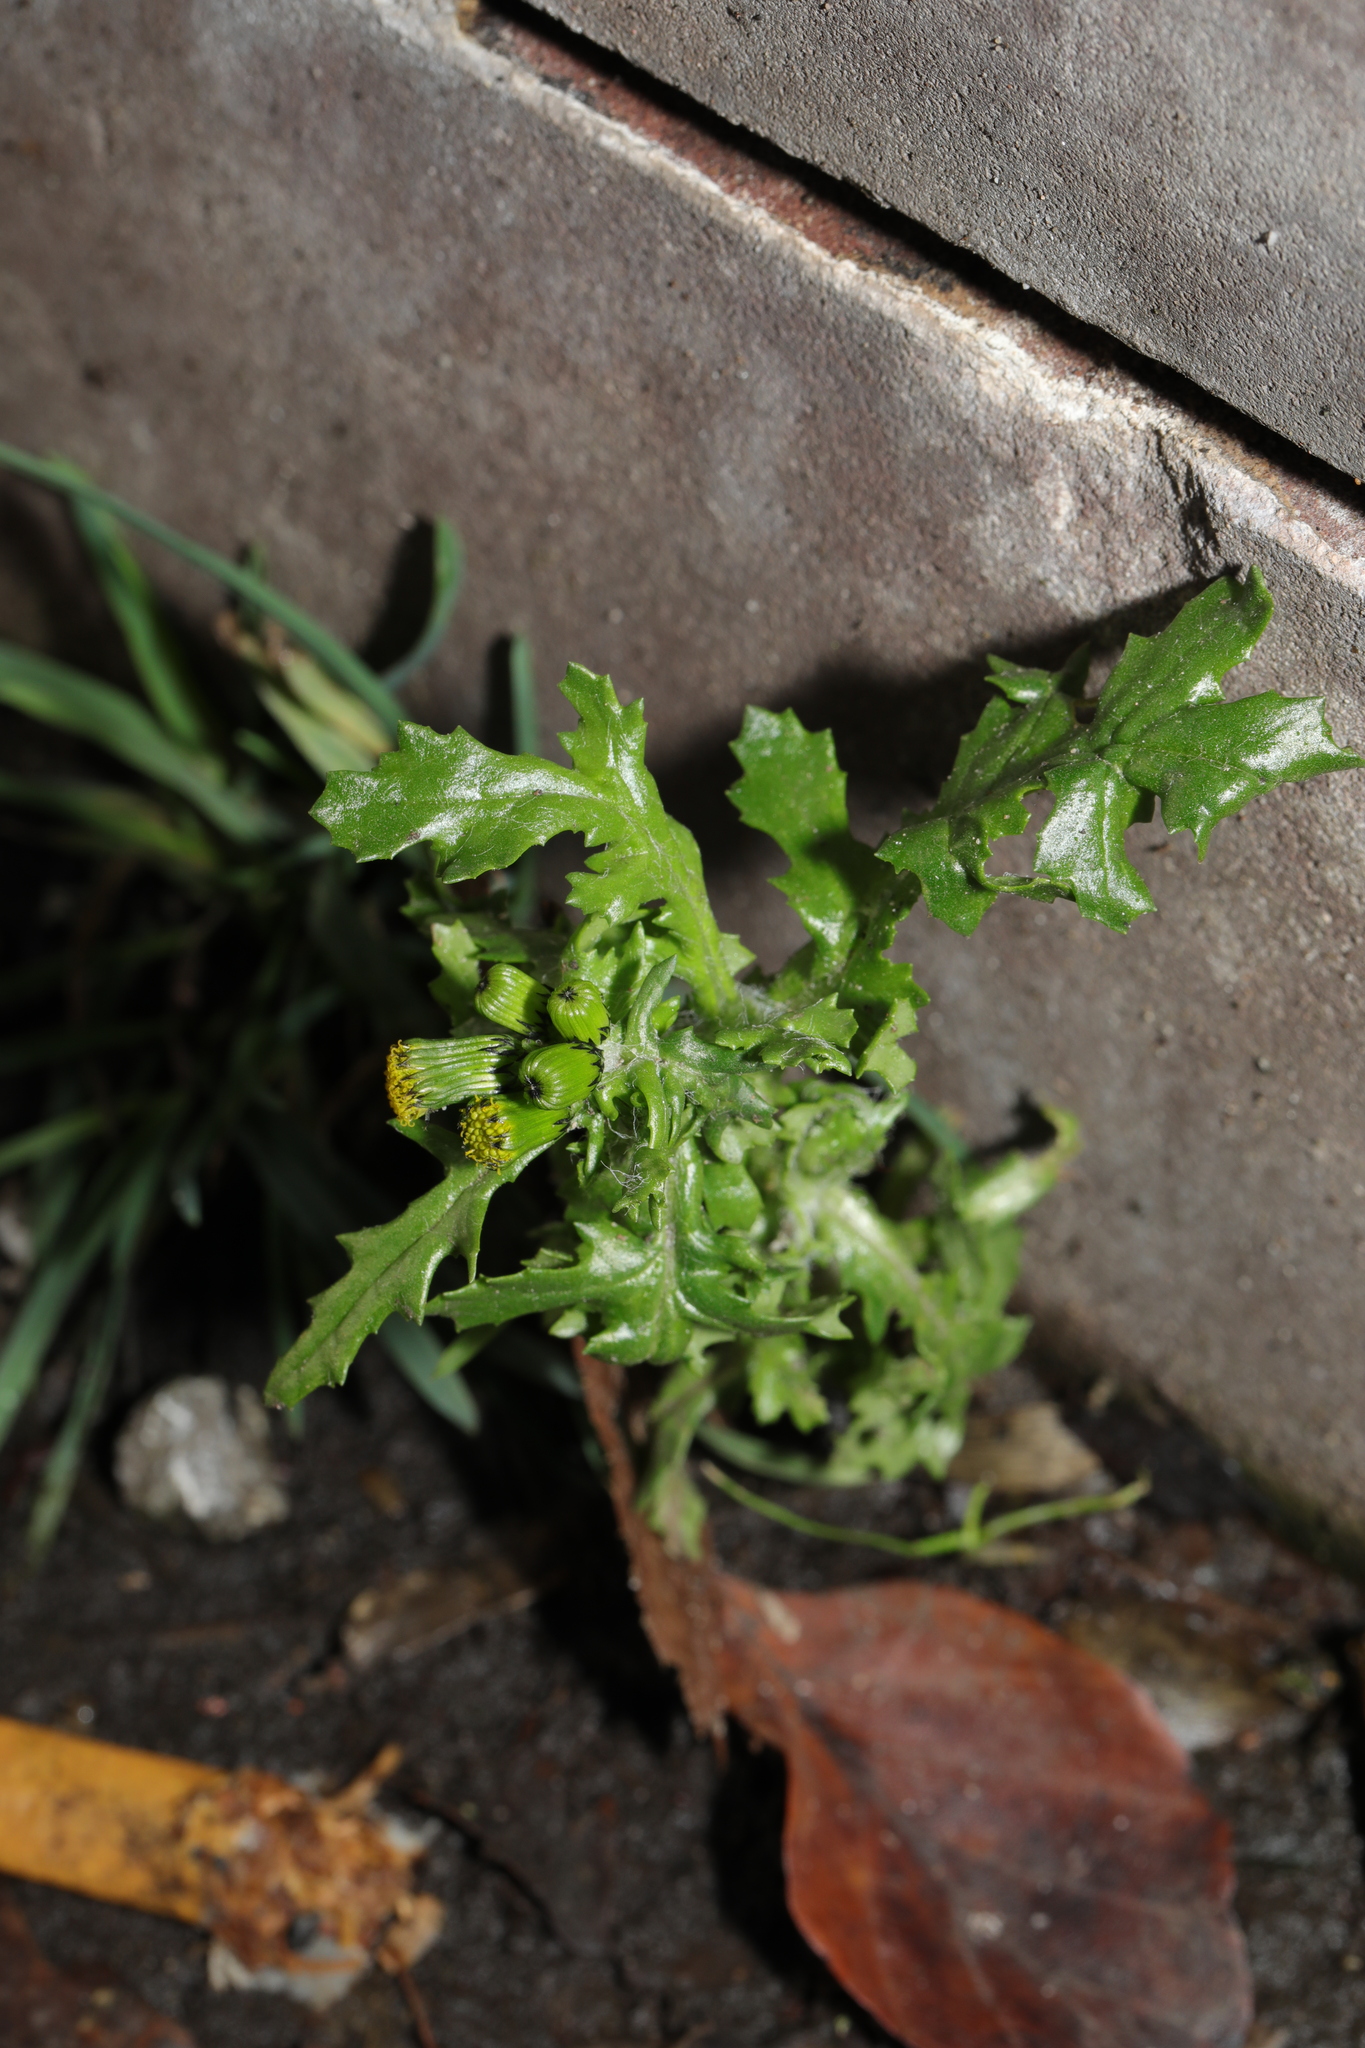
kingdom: Plantae
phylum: Tracheophyta
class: Magnoliopsida
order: Asterales
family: Asteraceae
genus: Senecio
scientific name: Senecio vulgaris
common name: Old-man-in-the-spring
